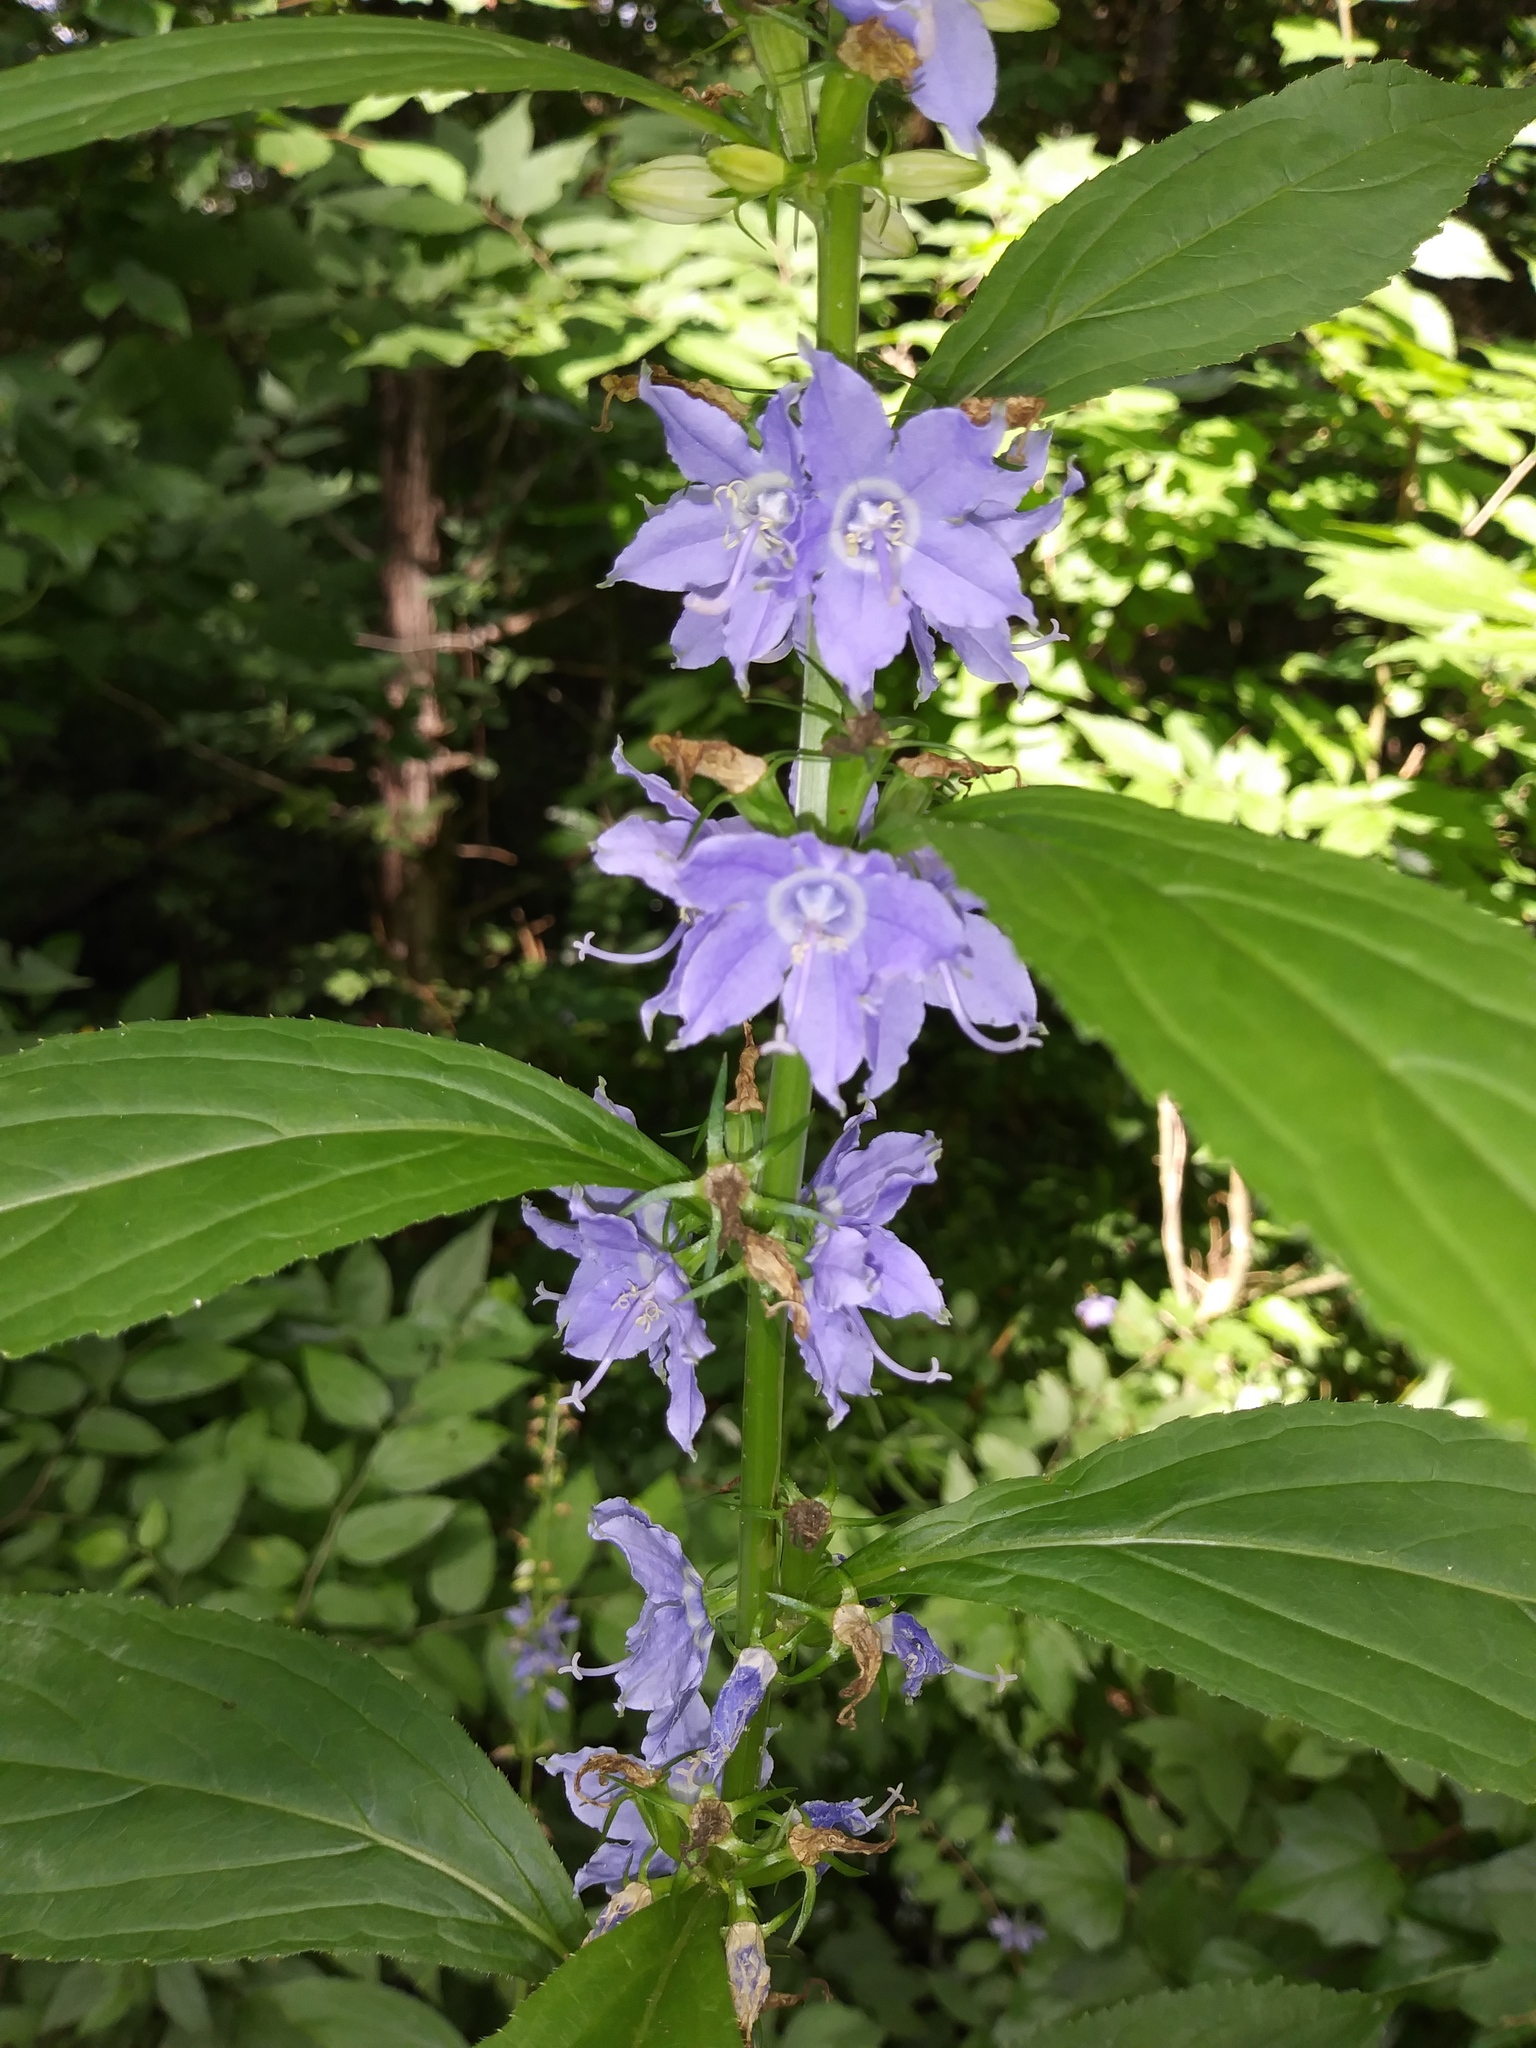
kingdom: Plantae
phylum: Tracheophyta
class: Magnoliopsida
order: Asterales
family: Campanulaceae
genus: Campanulastrum
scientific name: Campanulastrum americanum
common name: American bellflower
